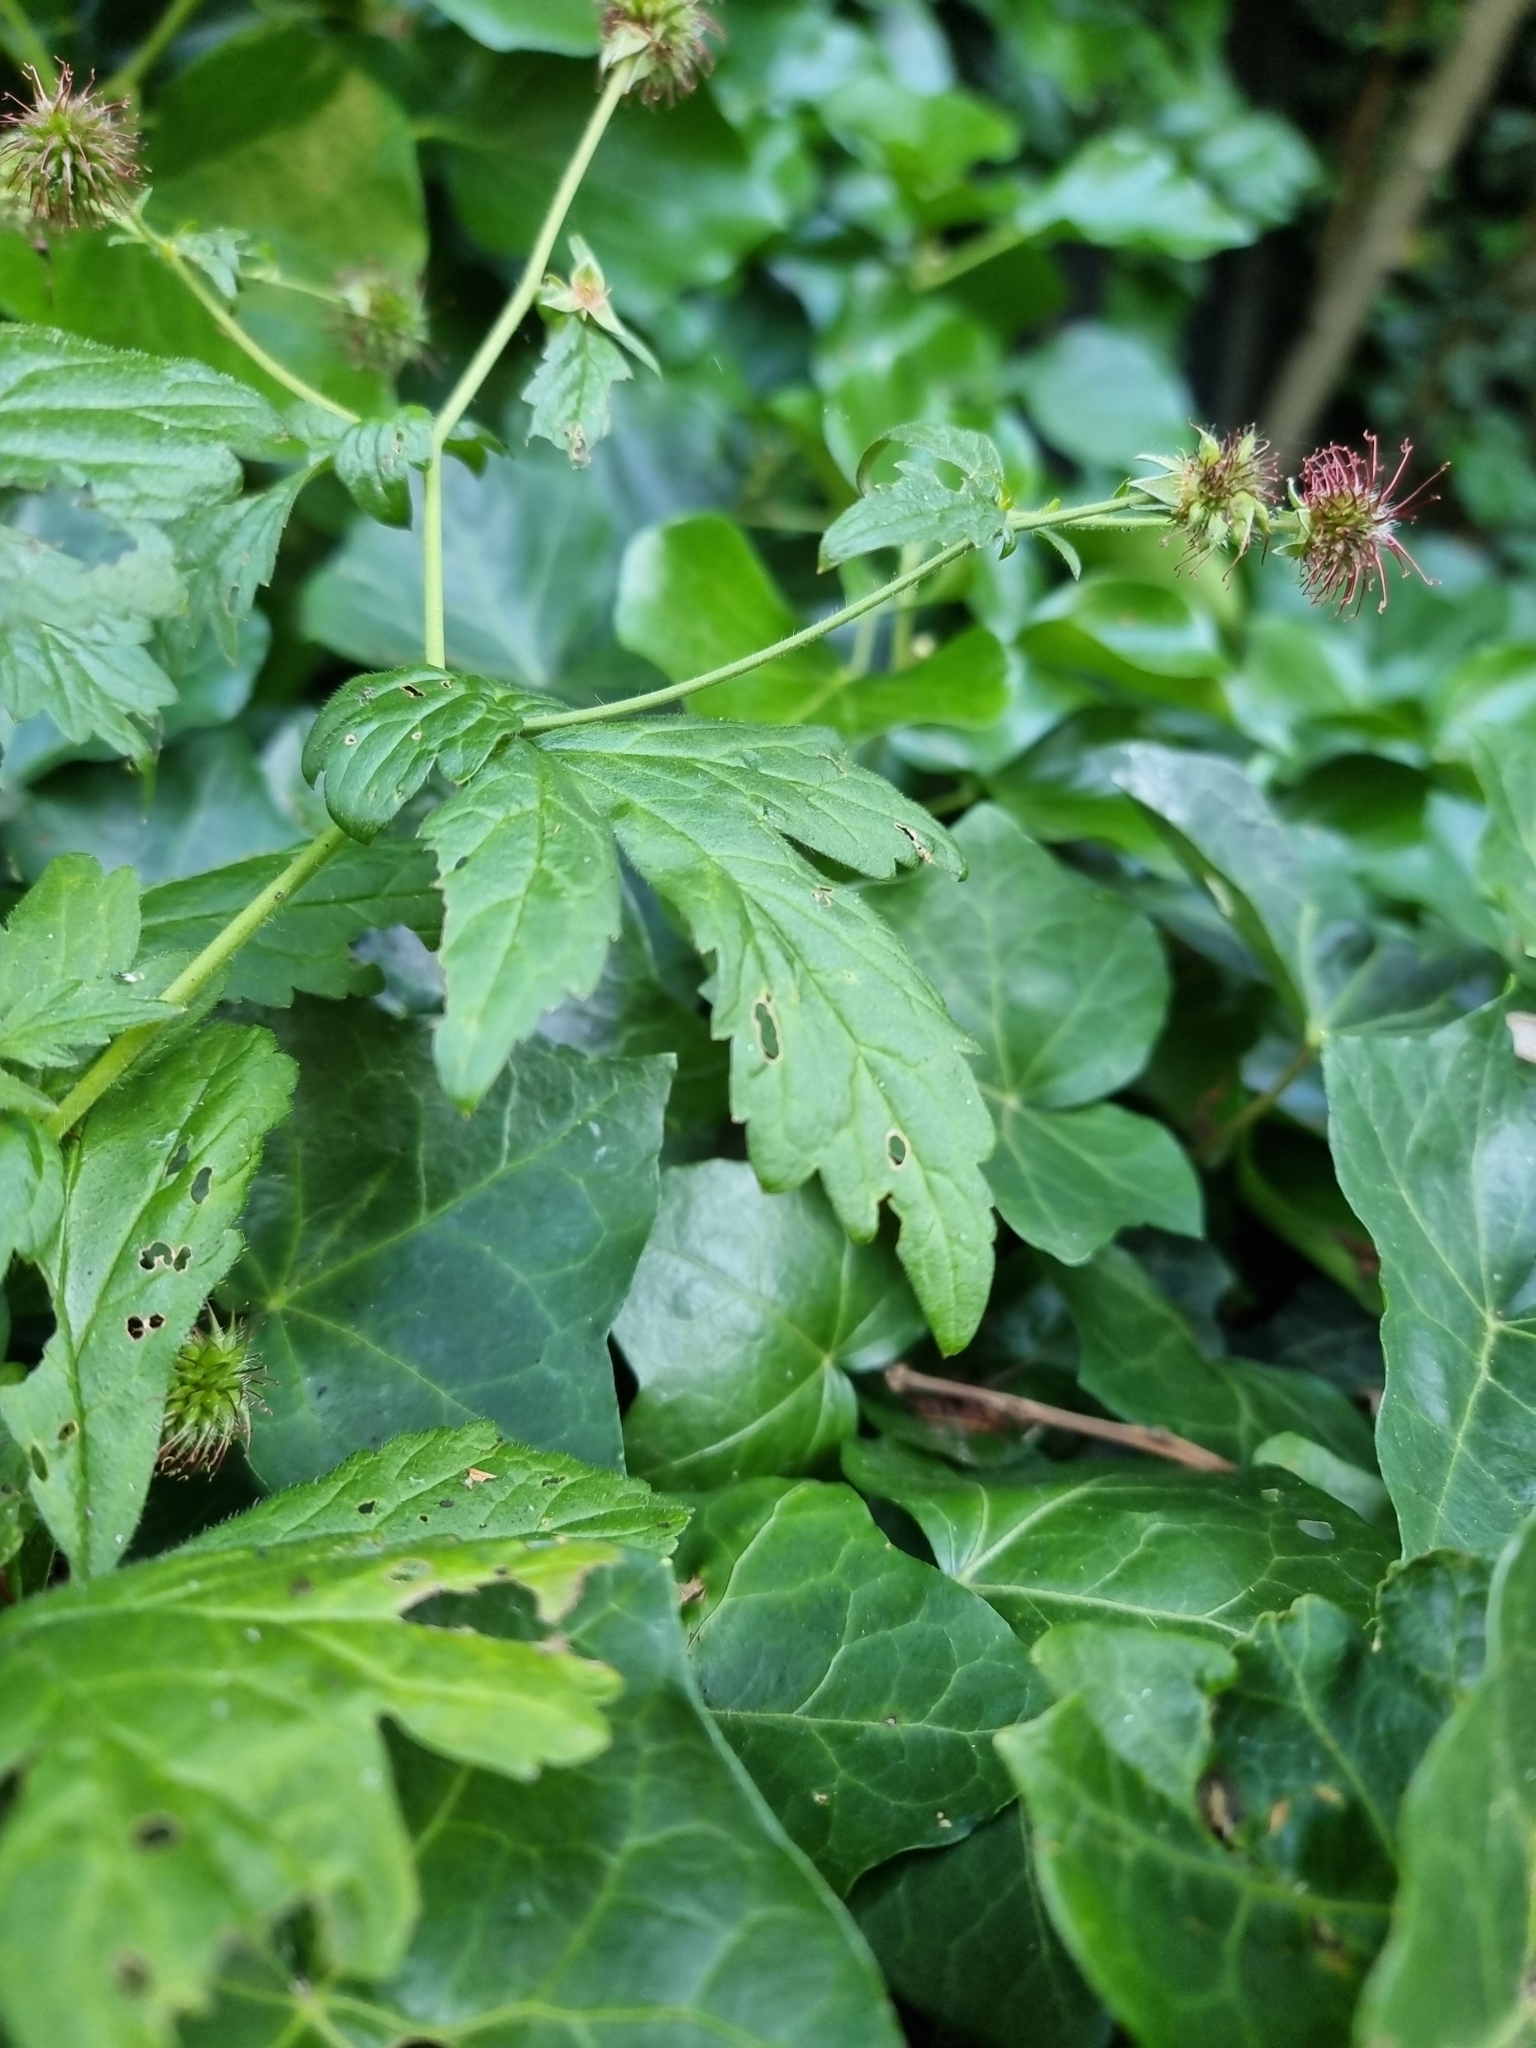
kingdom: Plantae
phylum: Tracheophyta
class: Magnoliopsida
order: Rosales
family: Rosaceae
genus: Geum
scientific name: Geum urbanum
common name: Wood avens
